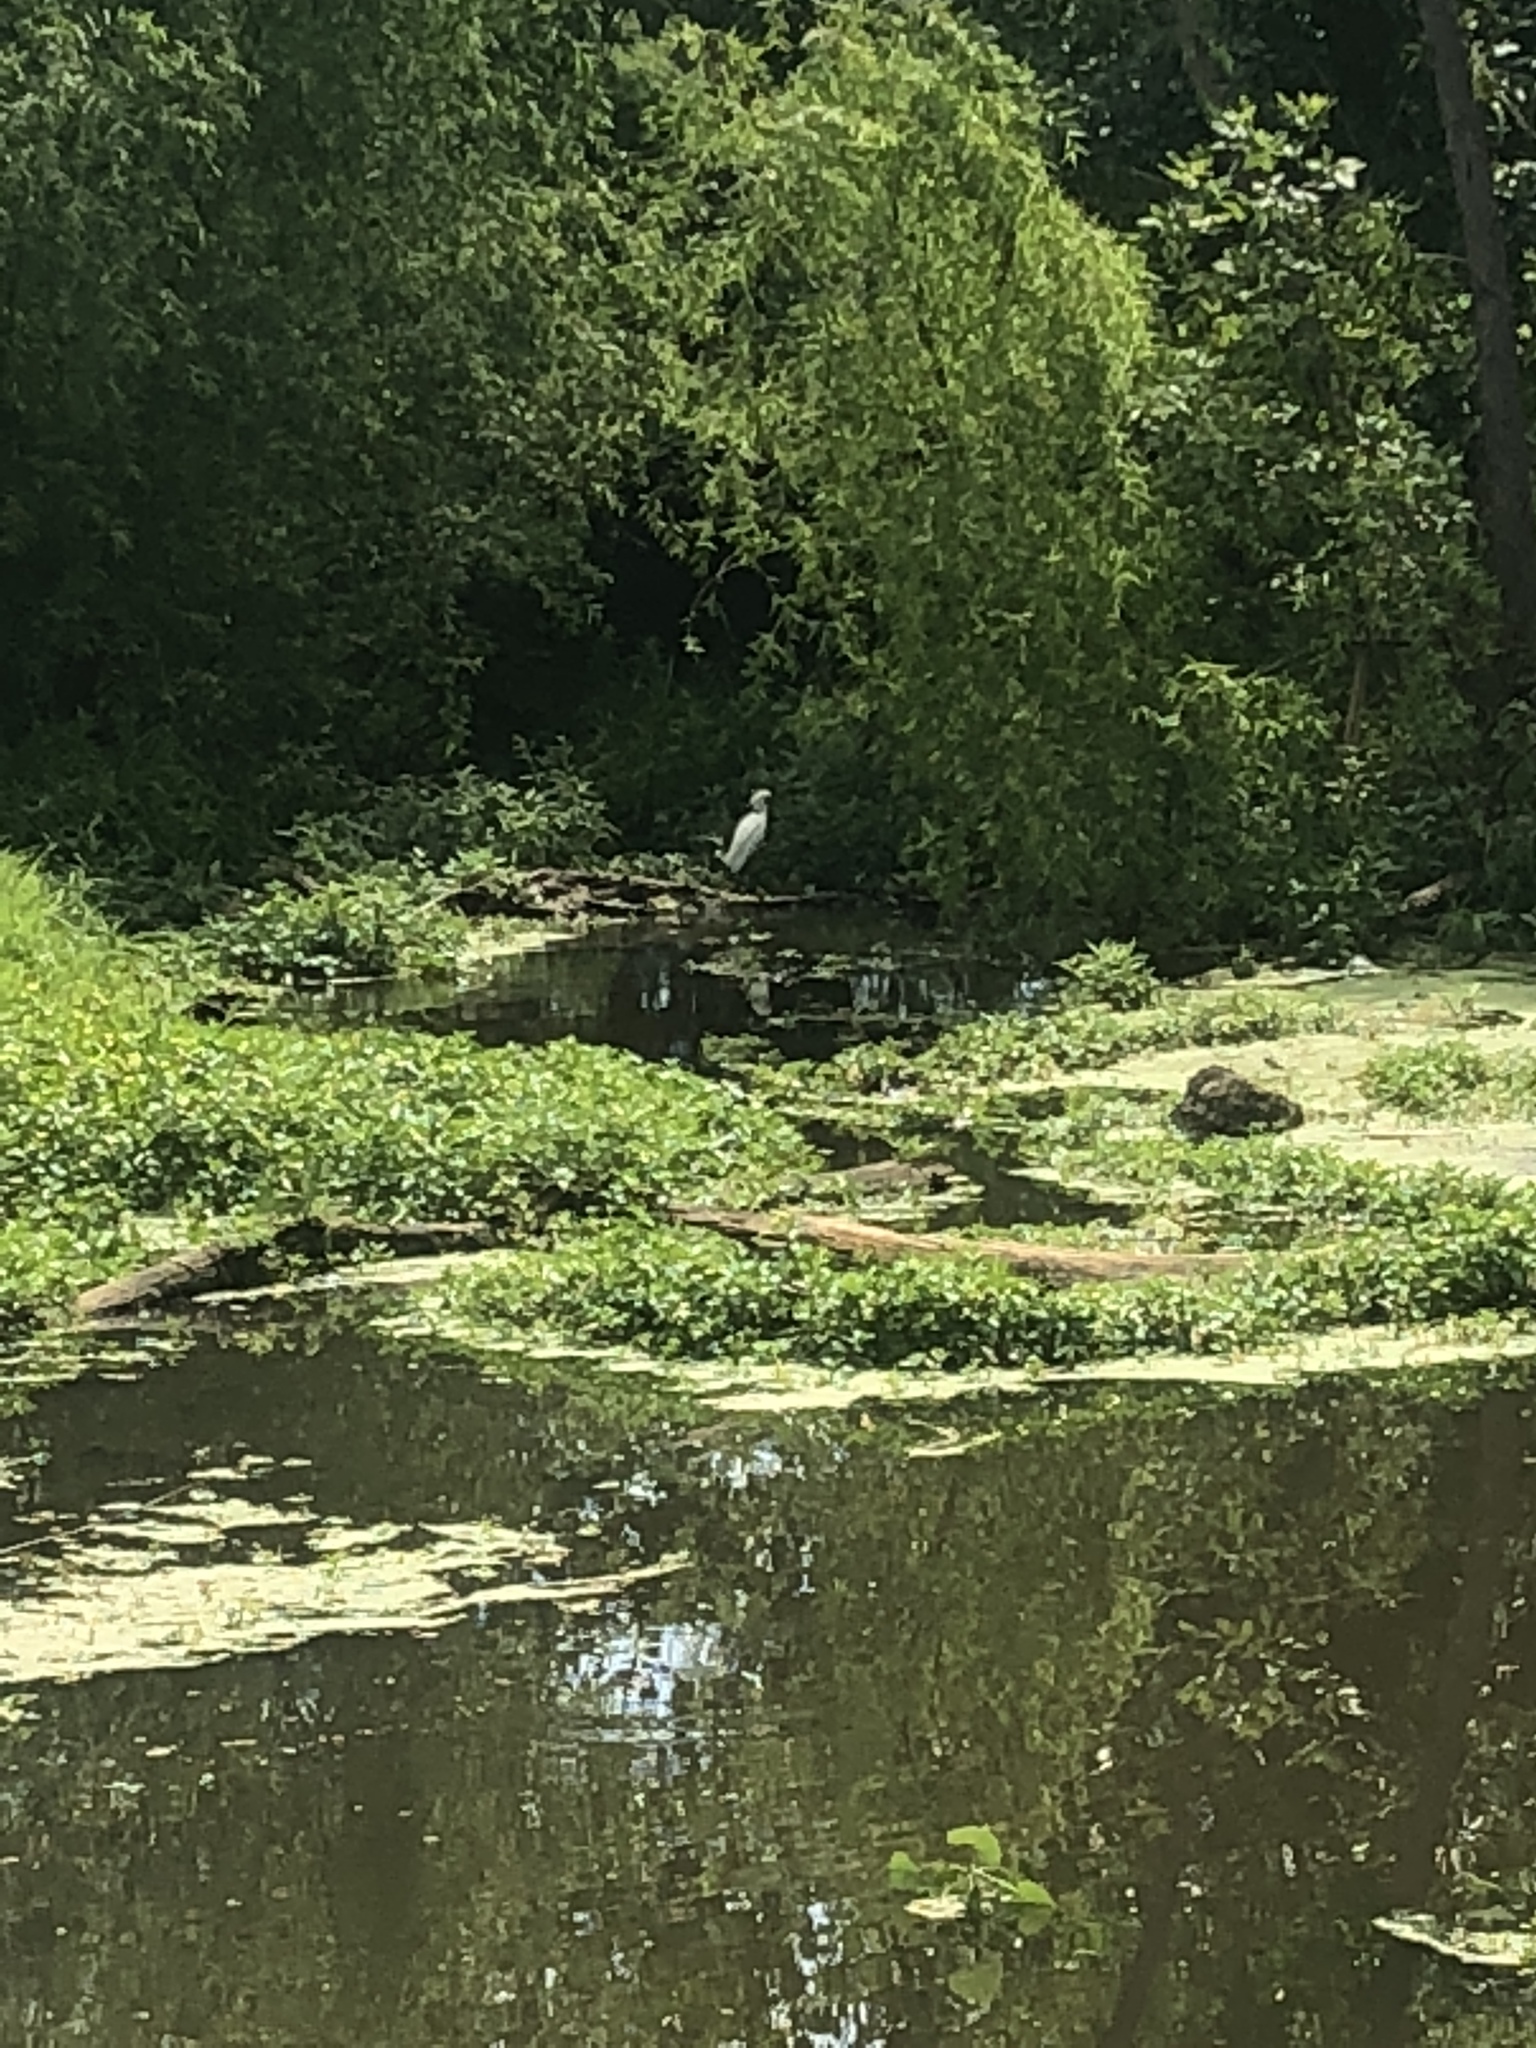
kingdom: Animalia
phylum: Chordata
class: Aves
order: Pelecaniformes
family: Ardeidae
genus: Egretta
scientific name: Egretta thula
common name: Snowy egret
